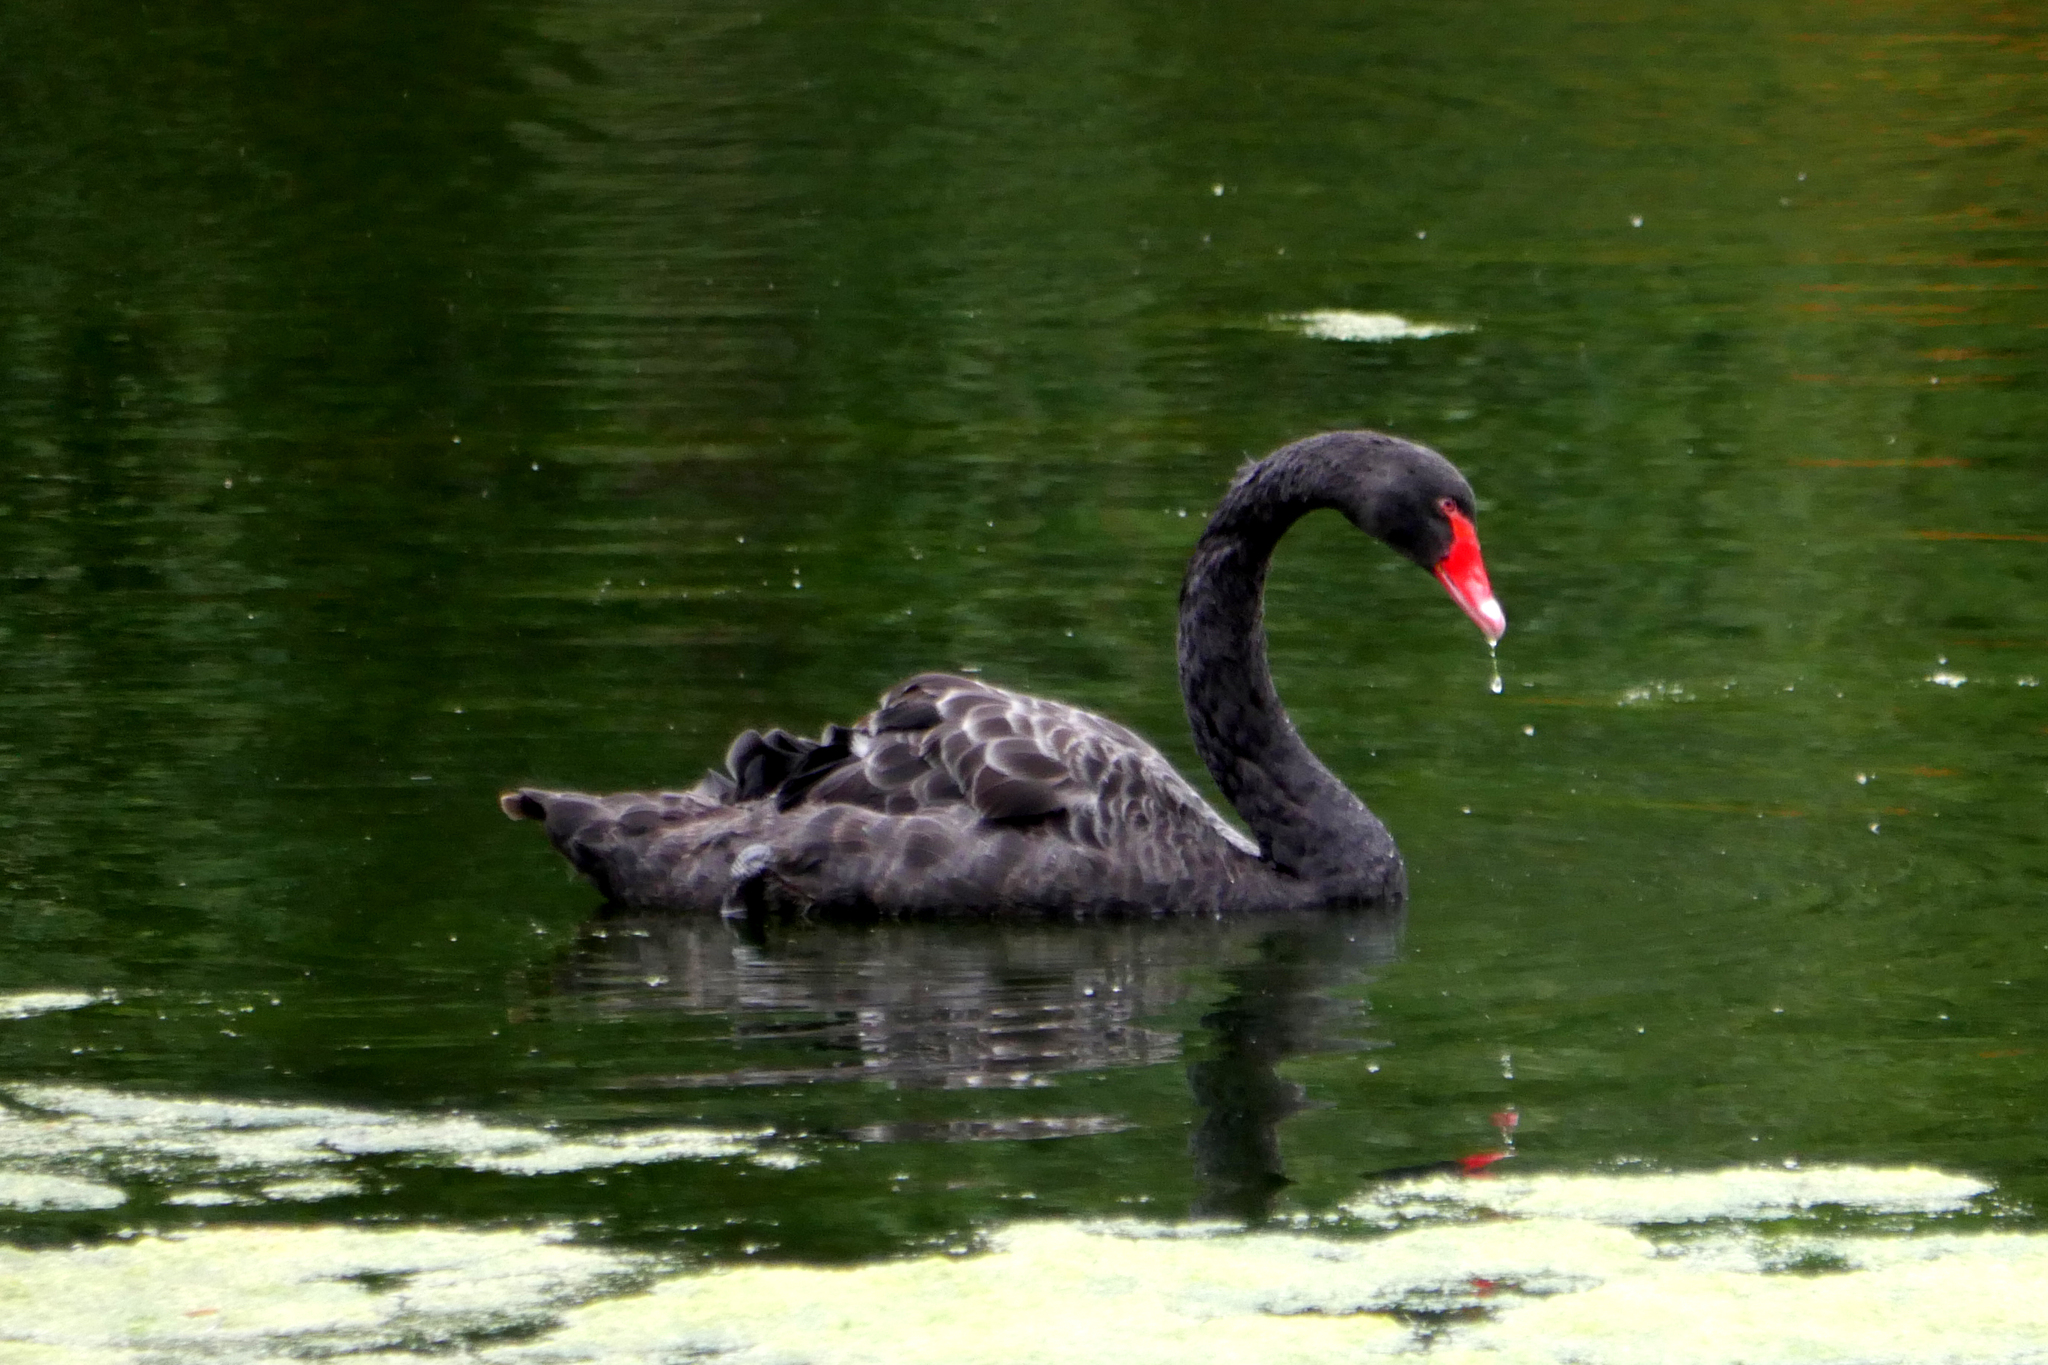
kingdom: Animalia
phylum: Chordata
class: Aves
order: Anseriformes
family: Anatidae
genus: Cygnus
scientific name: Cygnus atratus
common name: Black swan
